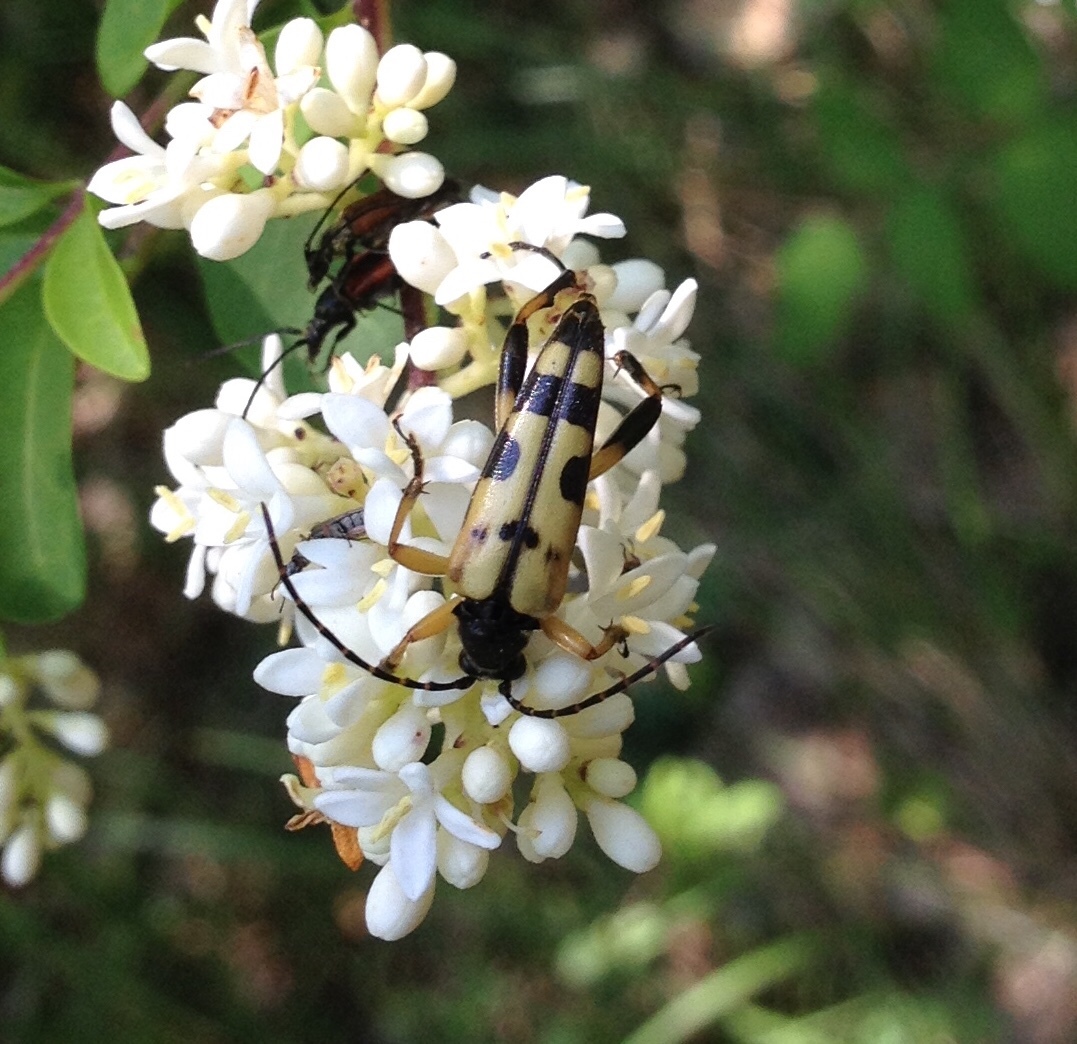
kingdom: Animalia
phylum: Arthropoda
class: Insecta
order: Coleoptera
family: Cerambycidae
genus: Rutpela
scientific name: Rutpela maculata
